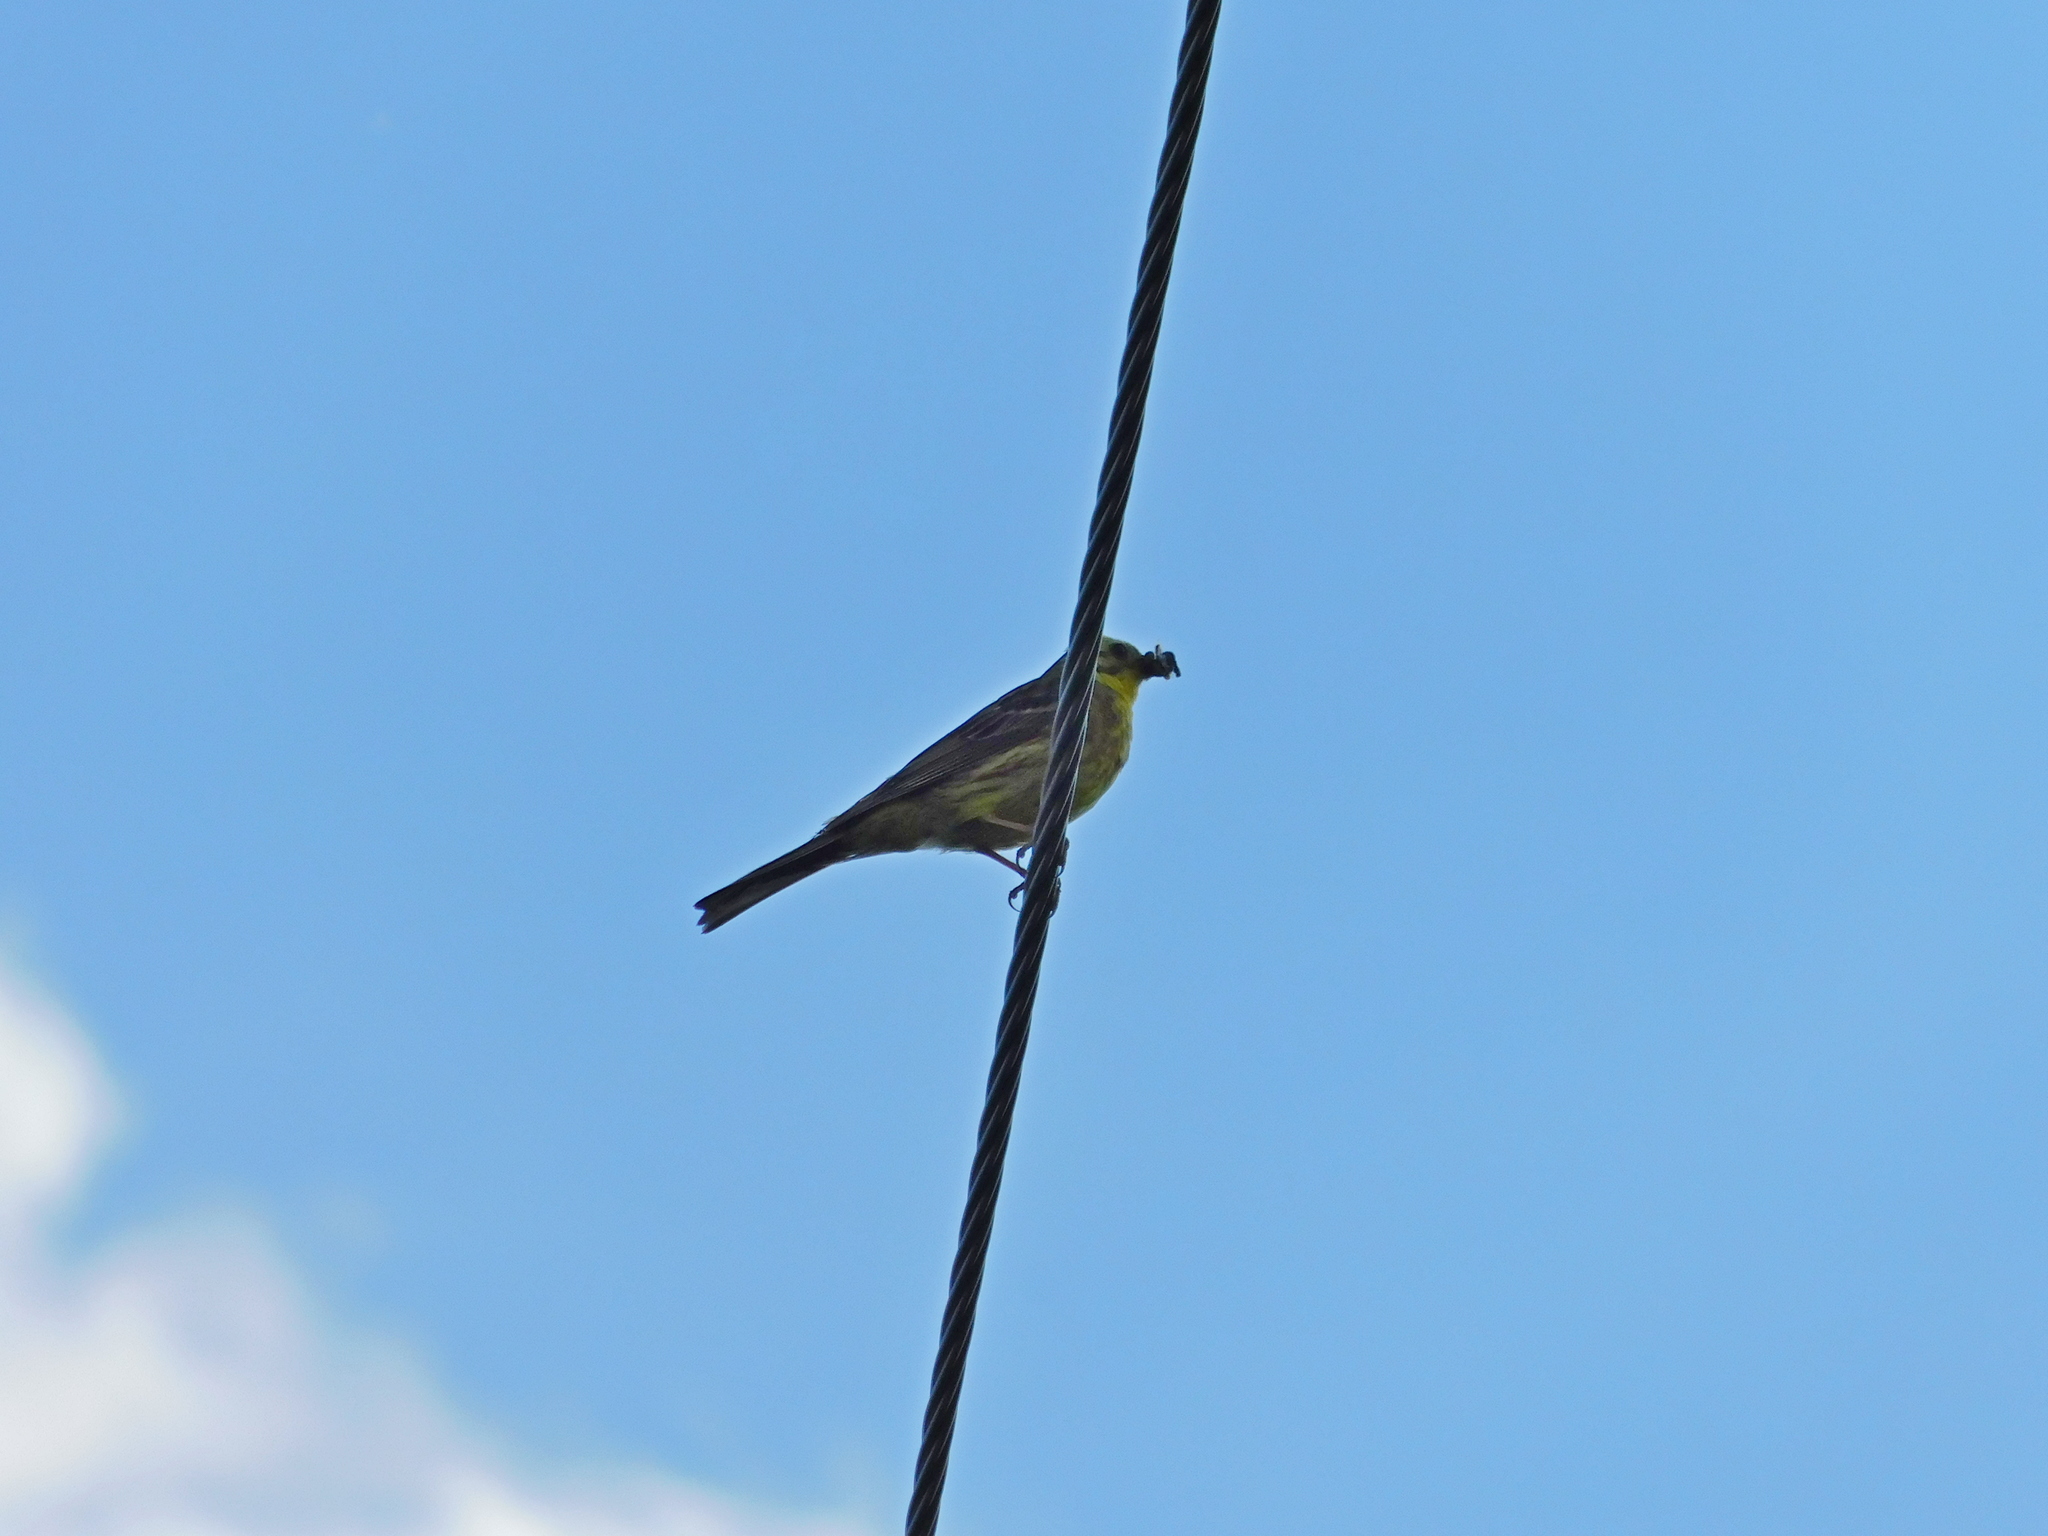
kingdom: Animalia
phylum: Chordata
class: Aves
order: Passeriformes
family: Emberizidae
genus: Emberiza
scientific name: Emberiza citrinella
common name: Yellowhammer
